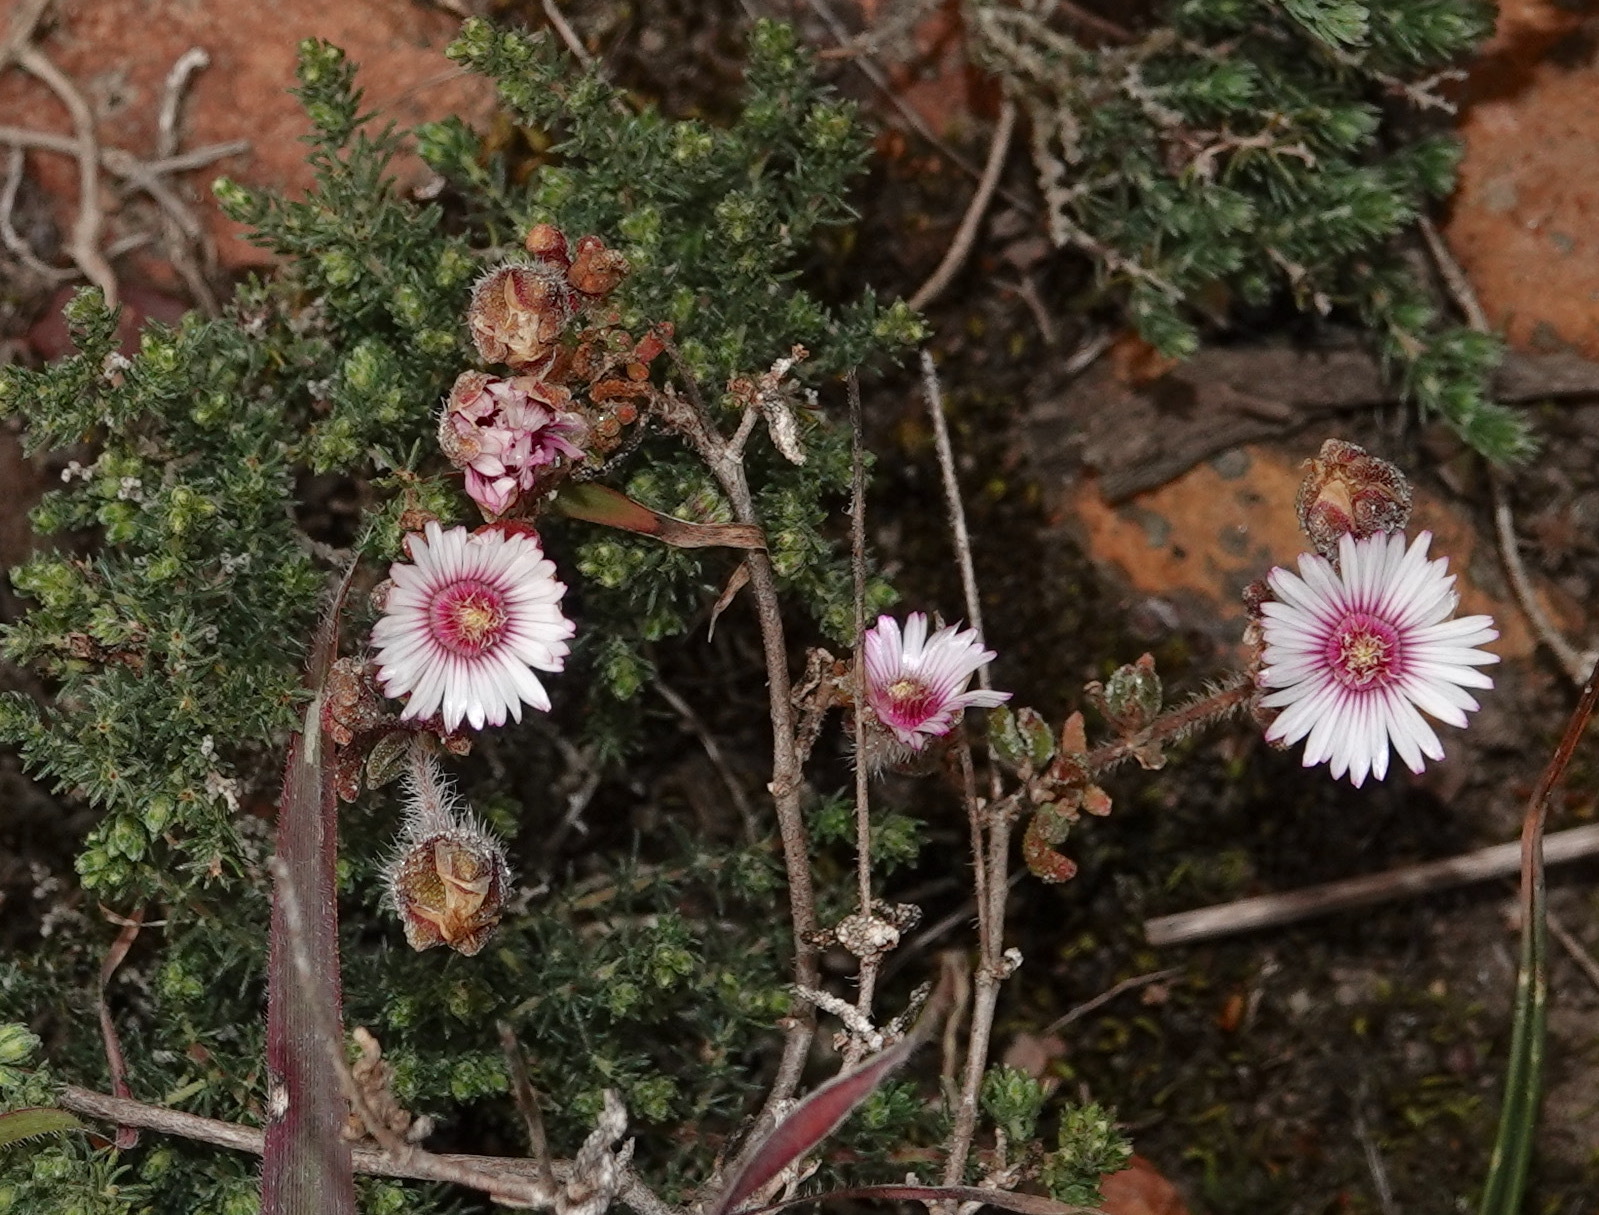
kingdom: Plantae
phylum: Tracheophyta
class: Magnoliopsida
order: Caryophyllales
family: Aizoaceae
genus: Drosanthemum
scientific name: Drosanthemum striatum
